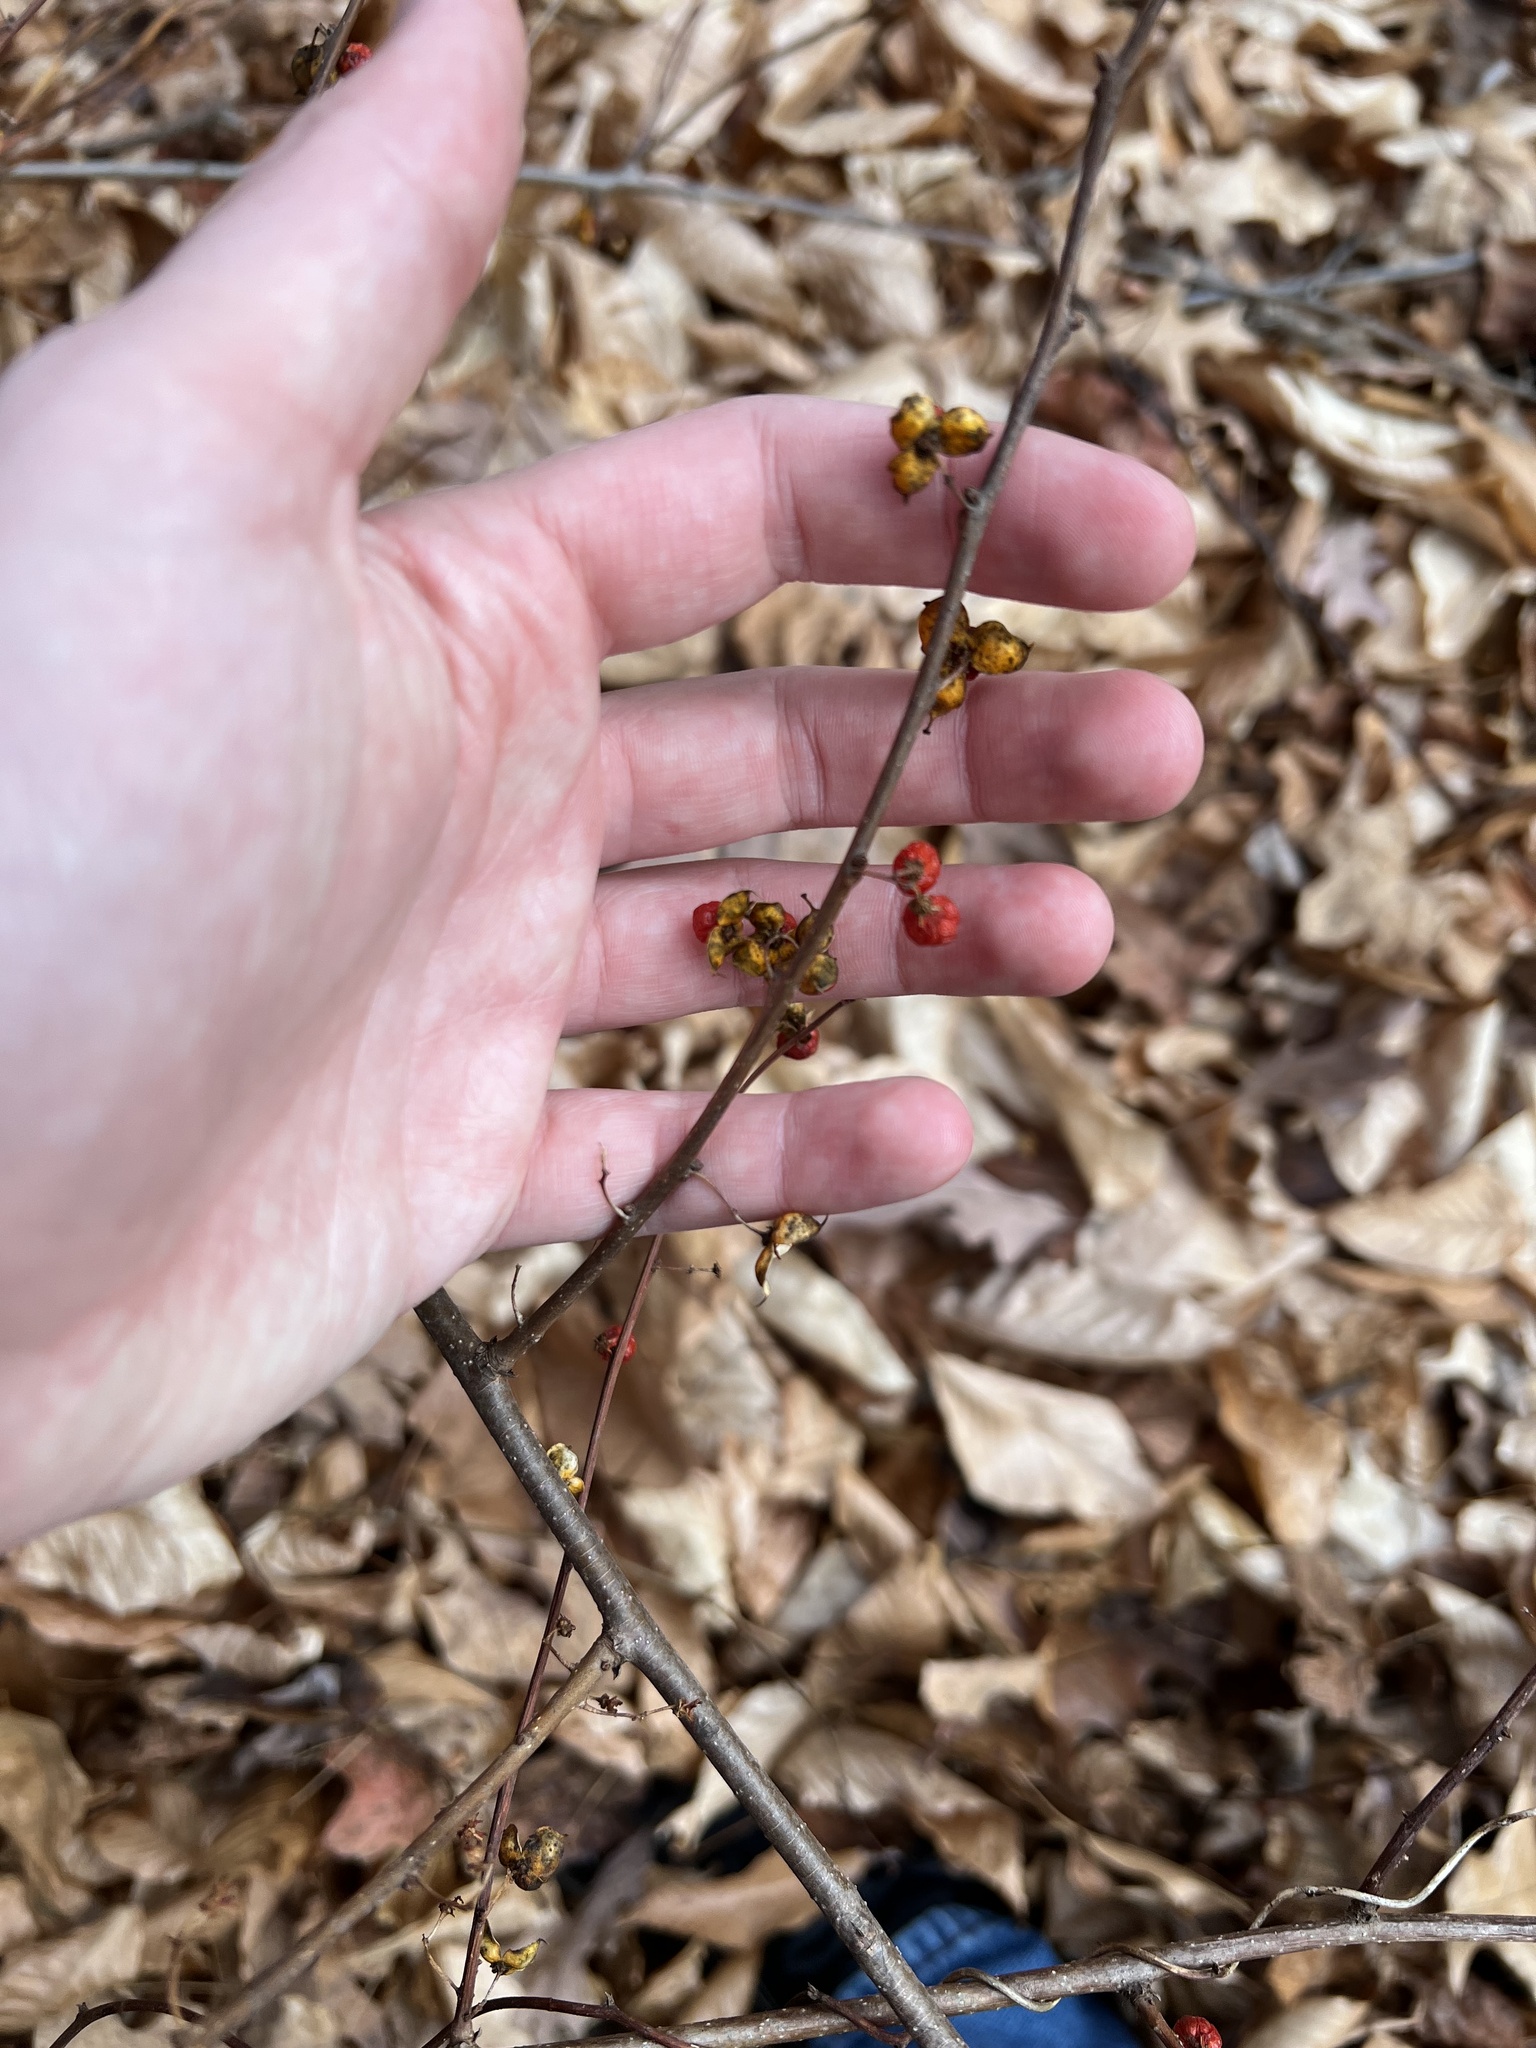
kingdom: Plantae
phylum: Tracheophyta
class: Magnoliopsida
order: Celastrales
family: Celastraceae
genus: Celastrus
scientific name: Celastrus orbiculatus
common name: Oriental bittersweet
